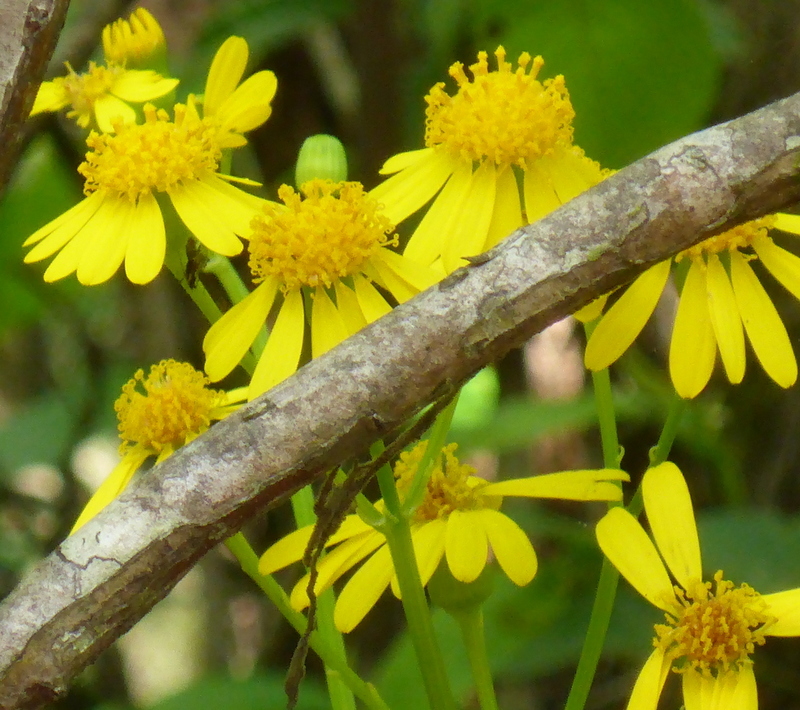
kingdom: Plantae
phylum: Tracheophyta
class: Magnoliopsida
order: Asterales
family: Asteraceae
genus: Packera
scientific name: Packera glabella
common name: Butterweed
